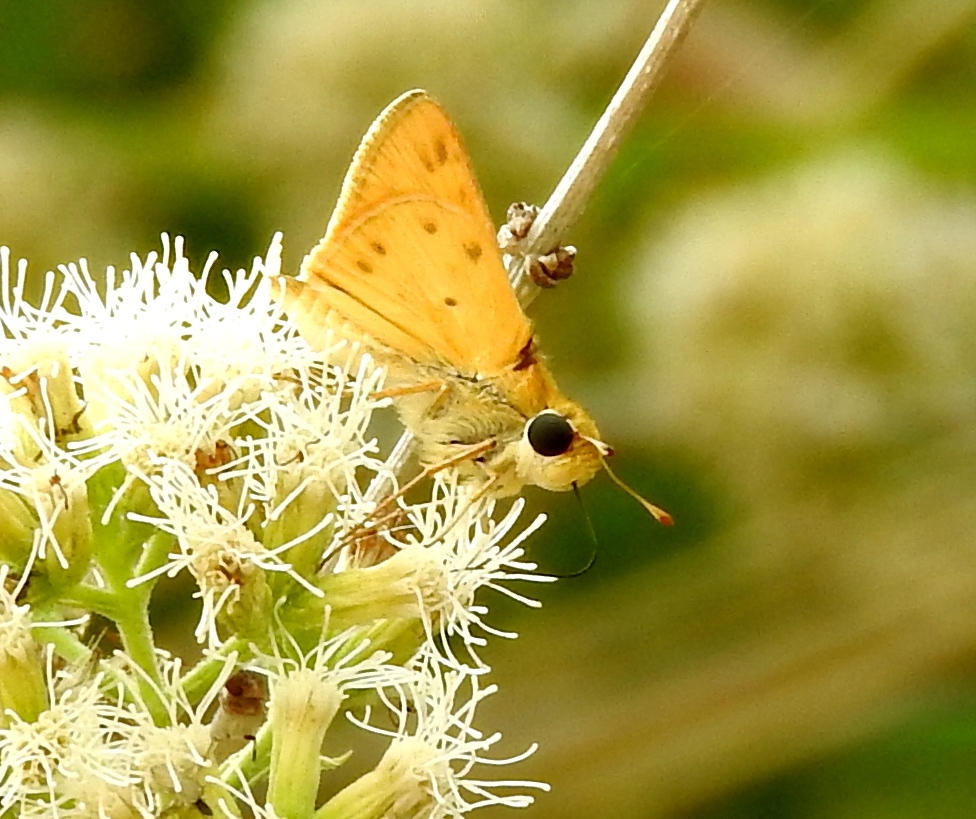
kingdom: Animalia
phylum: Arthropoda
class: Insecta
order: Lepidoptera
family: Hesperiidae
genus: Hylephila
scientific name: Hylephila phyleus
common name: Fiery skipper
